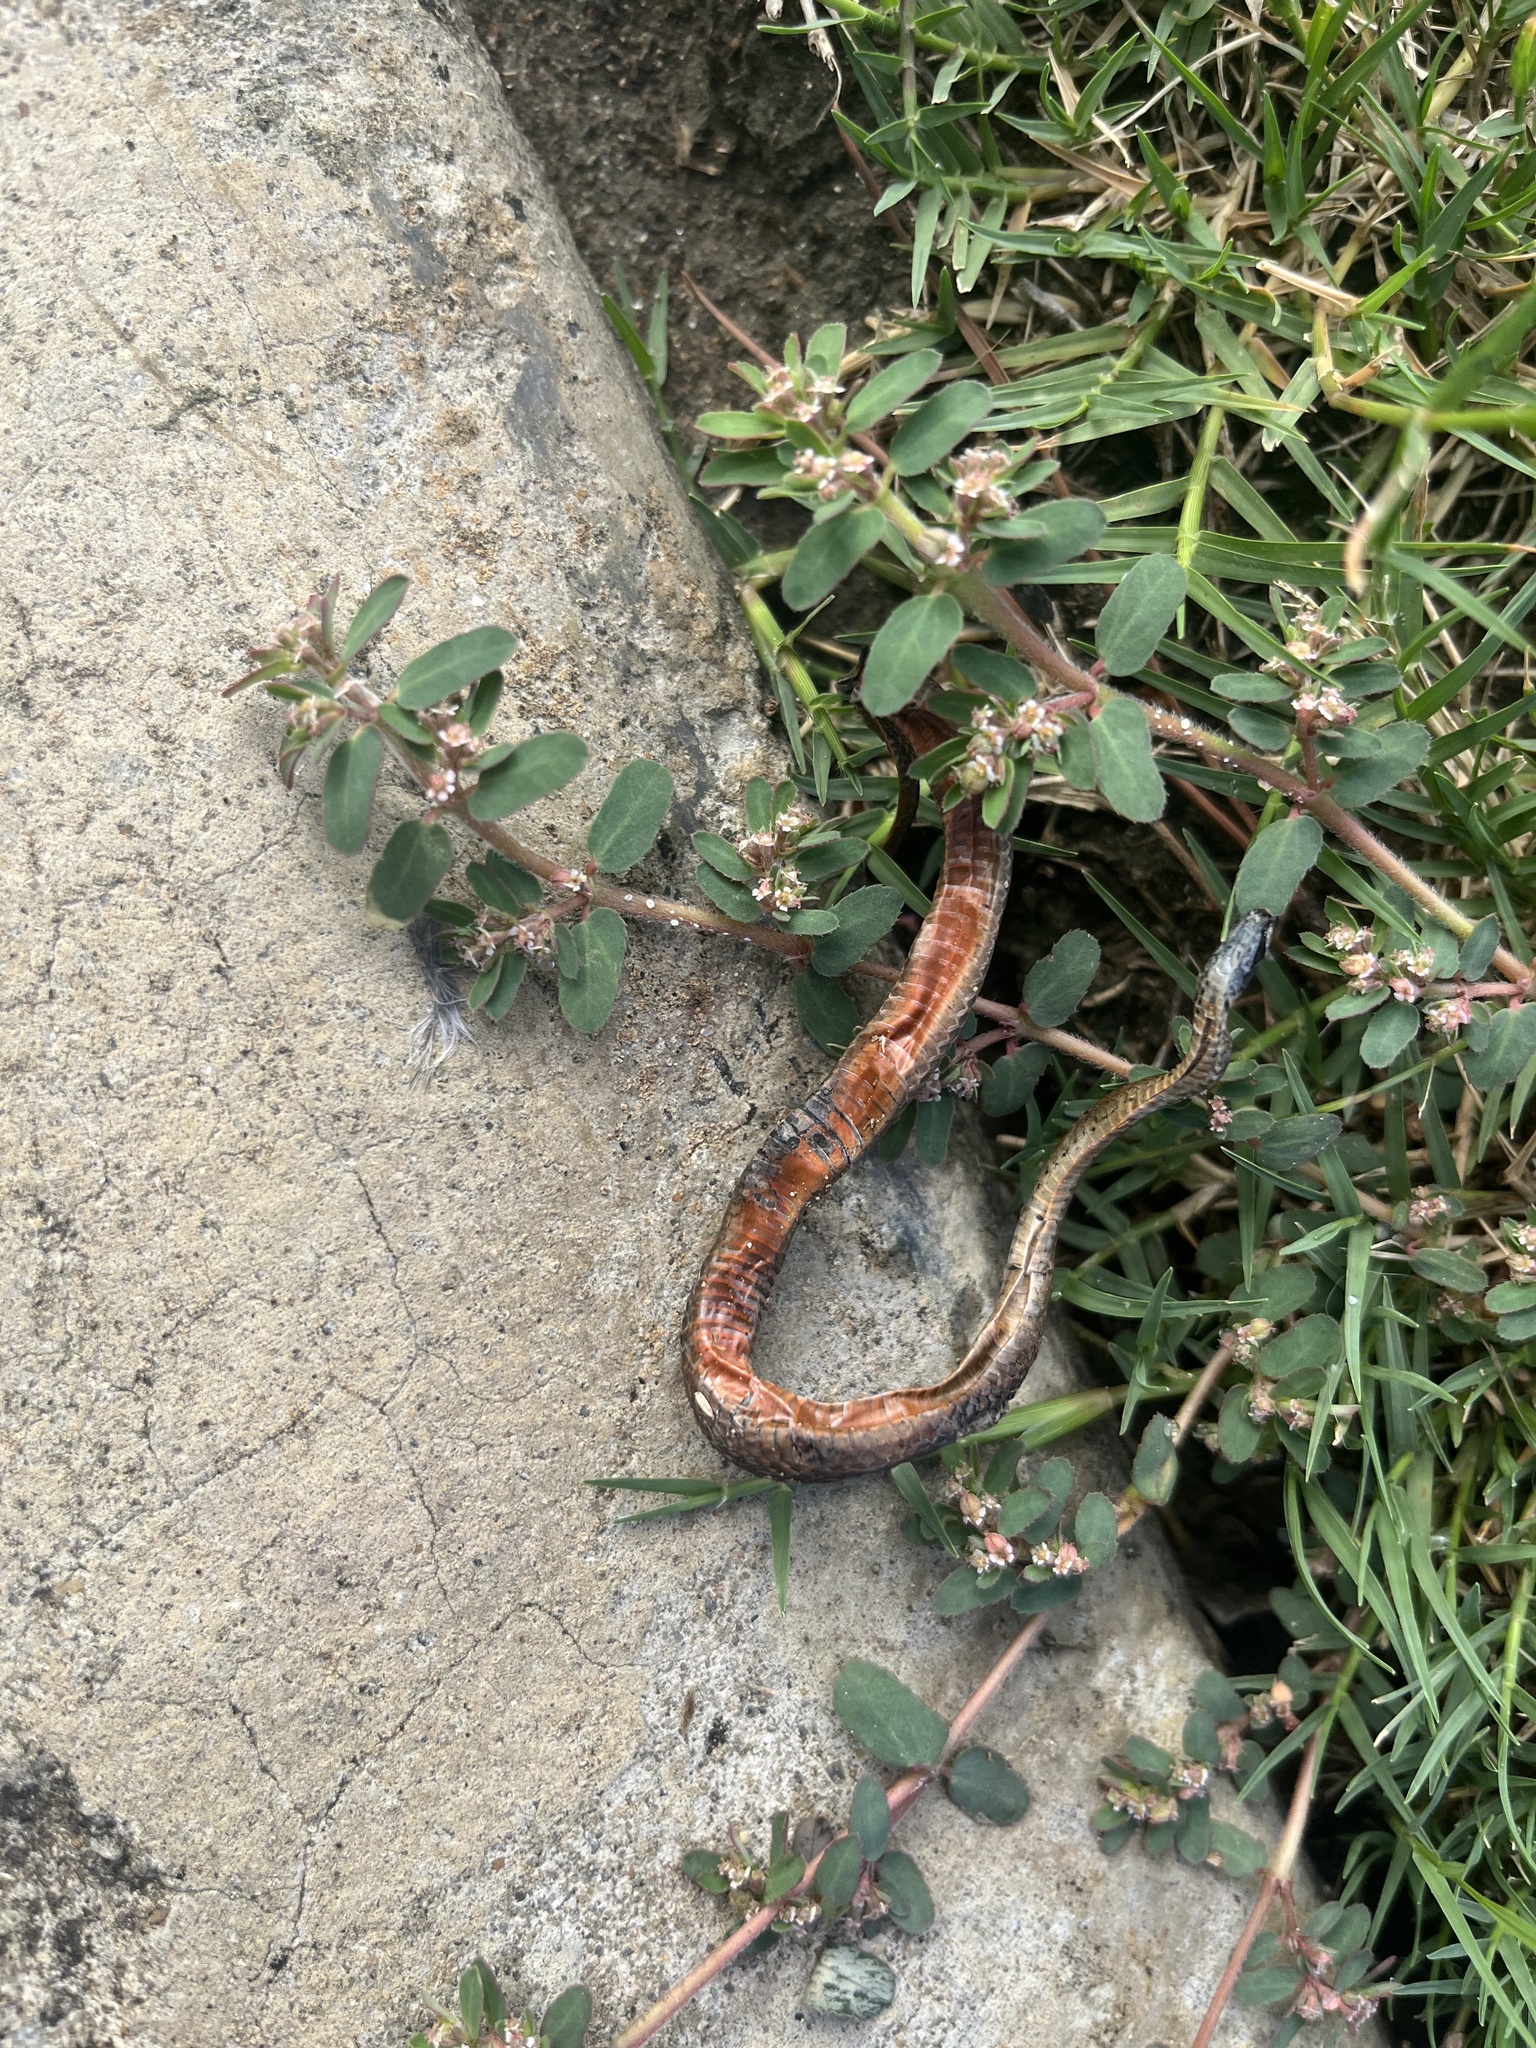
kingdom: Animalia
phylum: Chordata
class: Squamata
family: Colubridae
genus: Storeria
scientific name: Storeria occipitomaculata
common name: Redbelly snake
